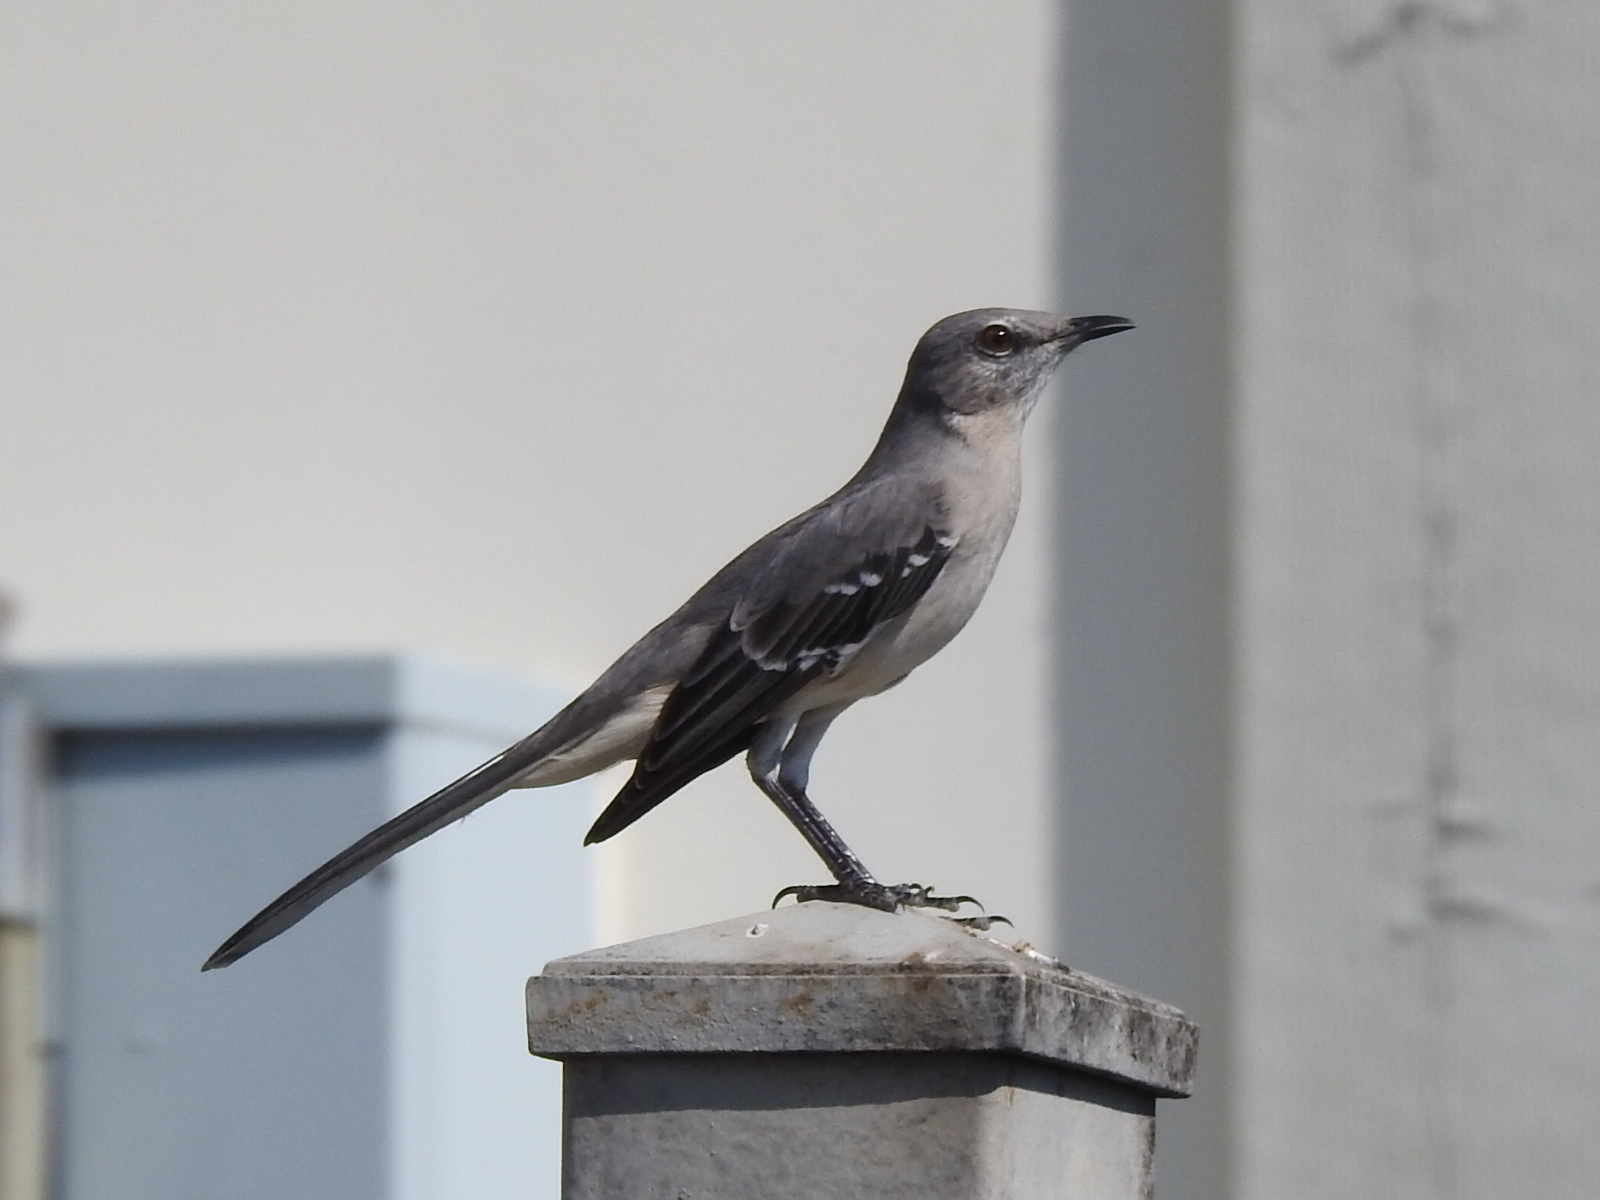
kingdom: Animalia
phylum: Chordata
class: Aves
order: Passeriformes
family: Mimidae
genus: Mimus
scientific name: Mimus polyglottos
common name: Northern mockingbird
